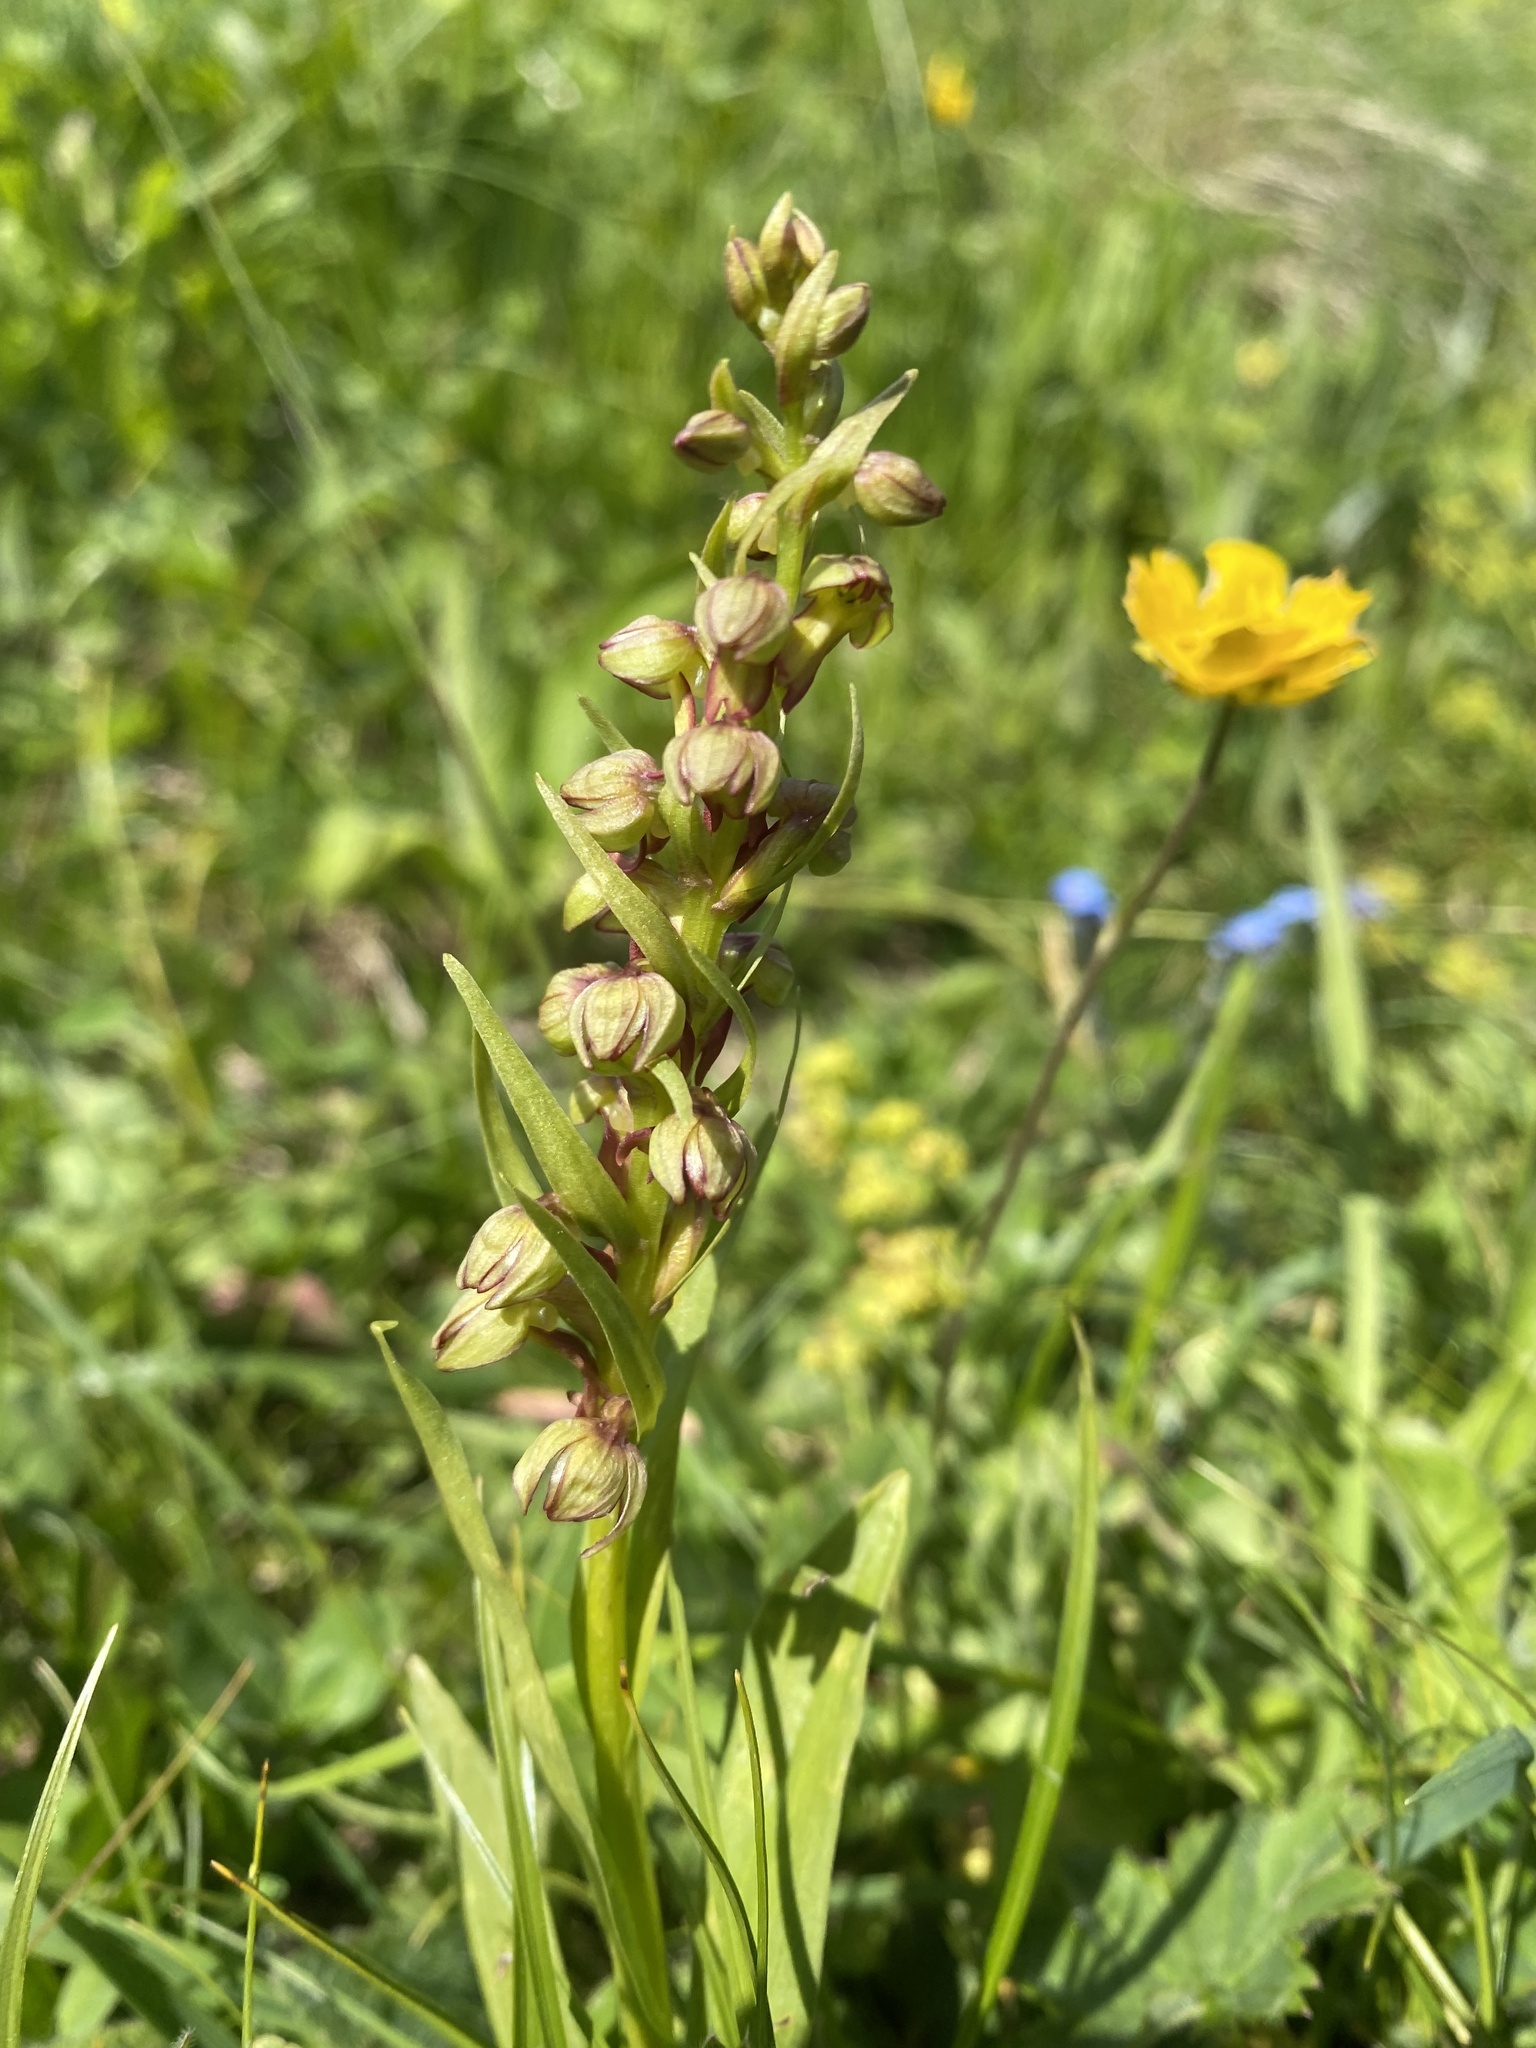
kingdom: Plantae
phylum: Tracheophyta
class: Liliopsida
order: Asparagales
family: Orchidaceae
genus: Dactylorhiza
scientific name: Dactylorhiza viridis
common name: Longbract frog orchid
